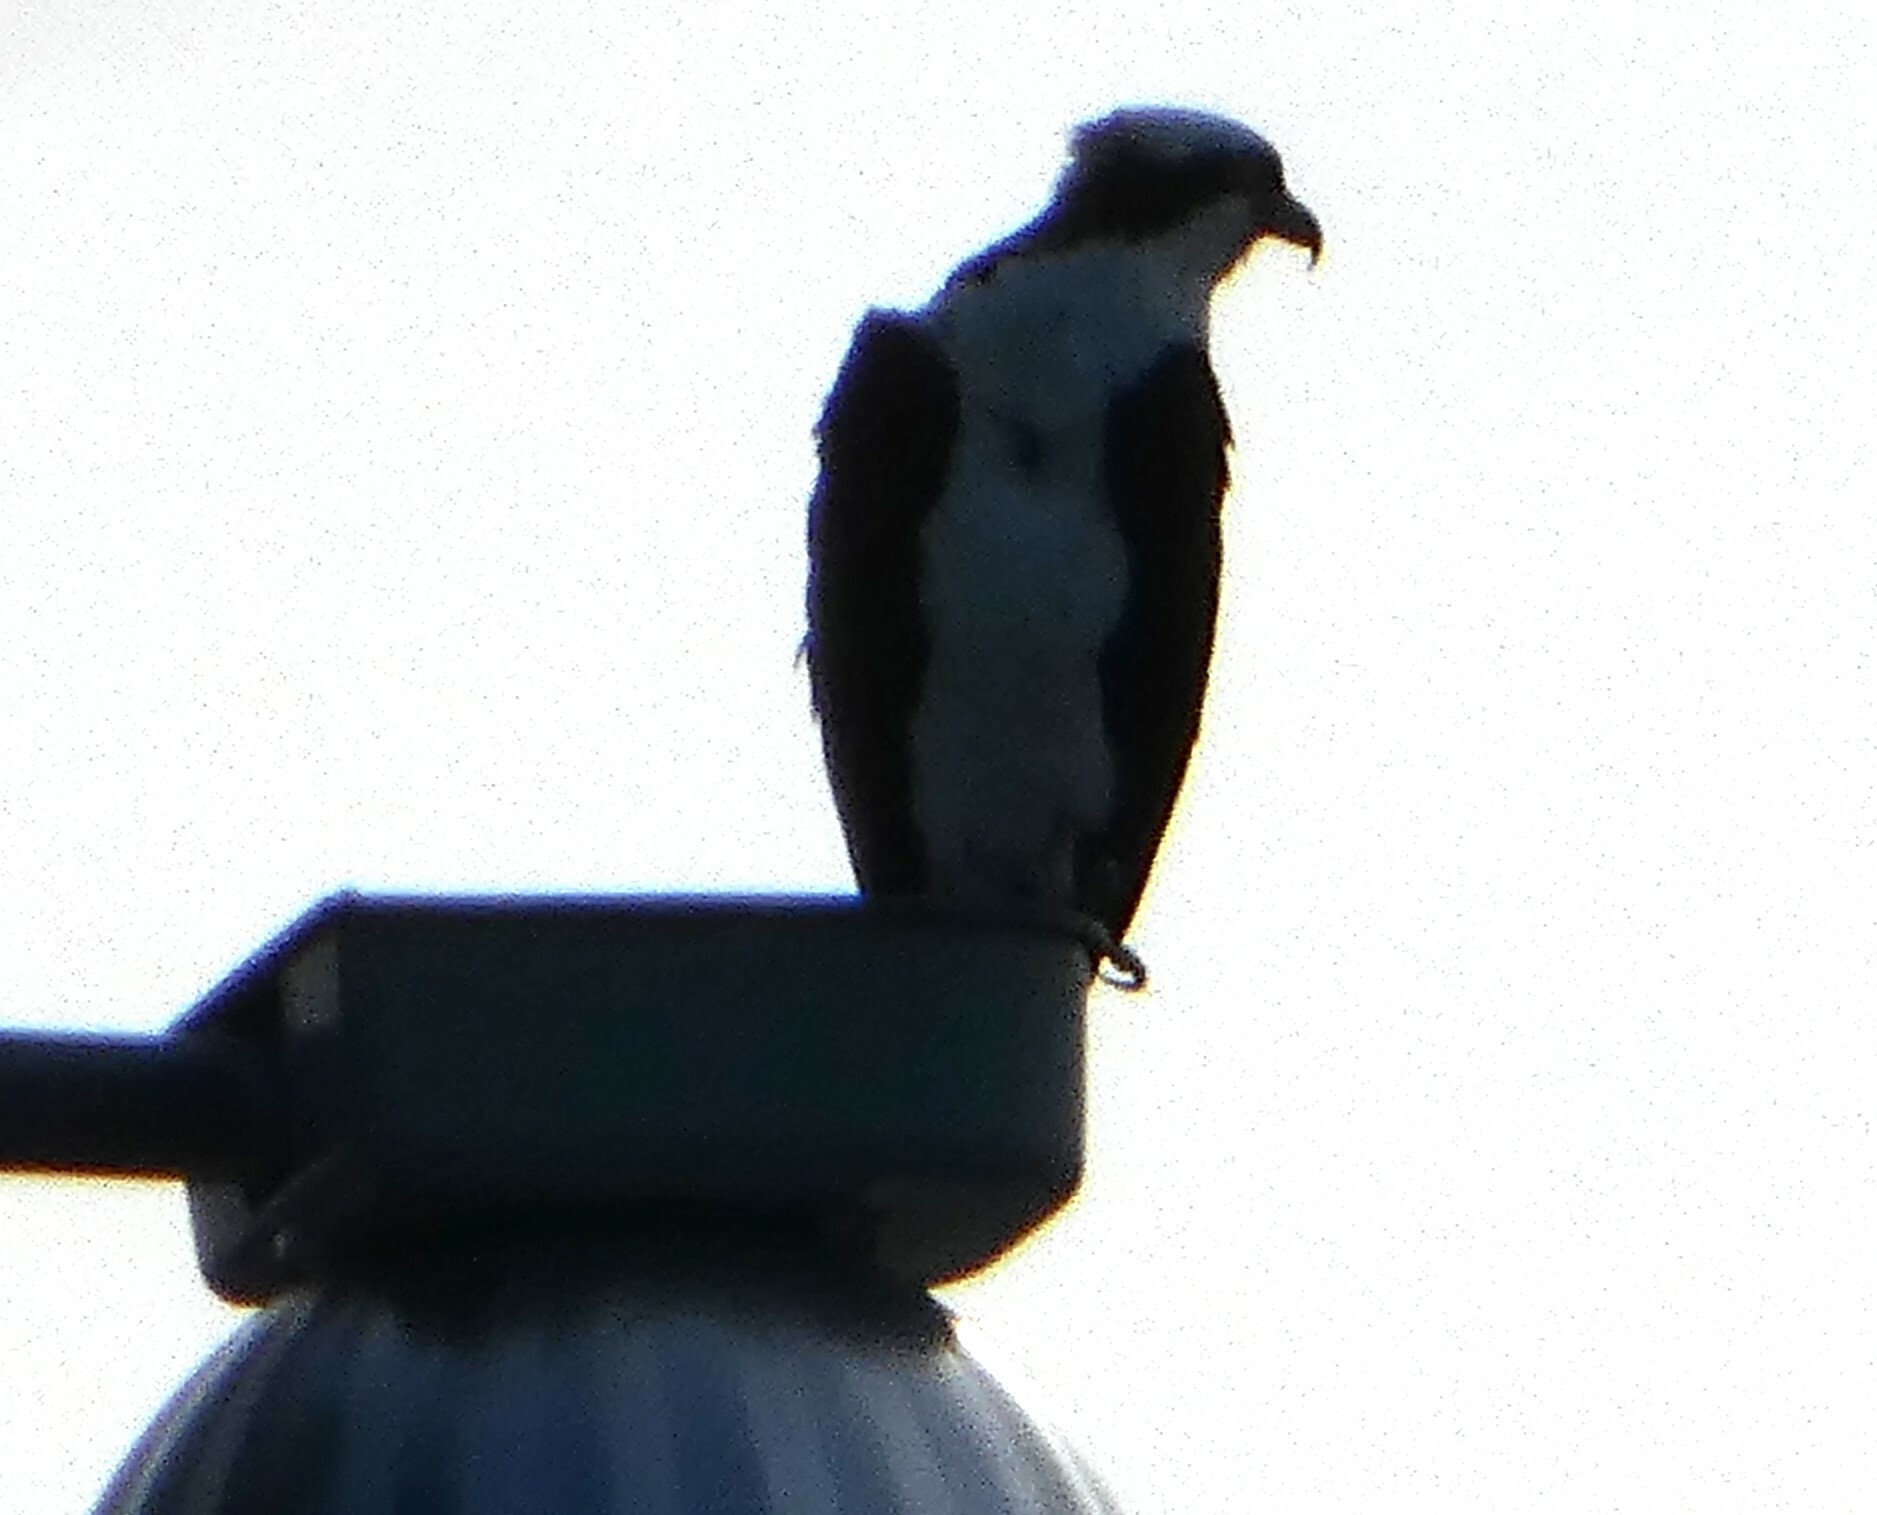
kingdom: Animalia
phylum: Chordata
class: Aves
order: Accipitriformes
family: Pandionidae
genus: Pandion
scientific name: Pandion haliaetus
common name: Osprey
